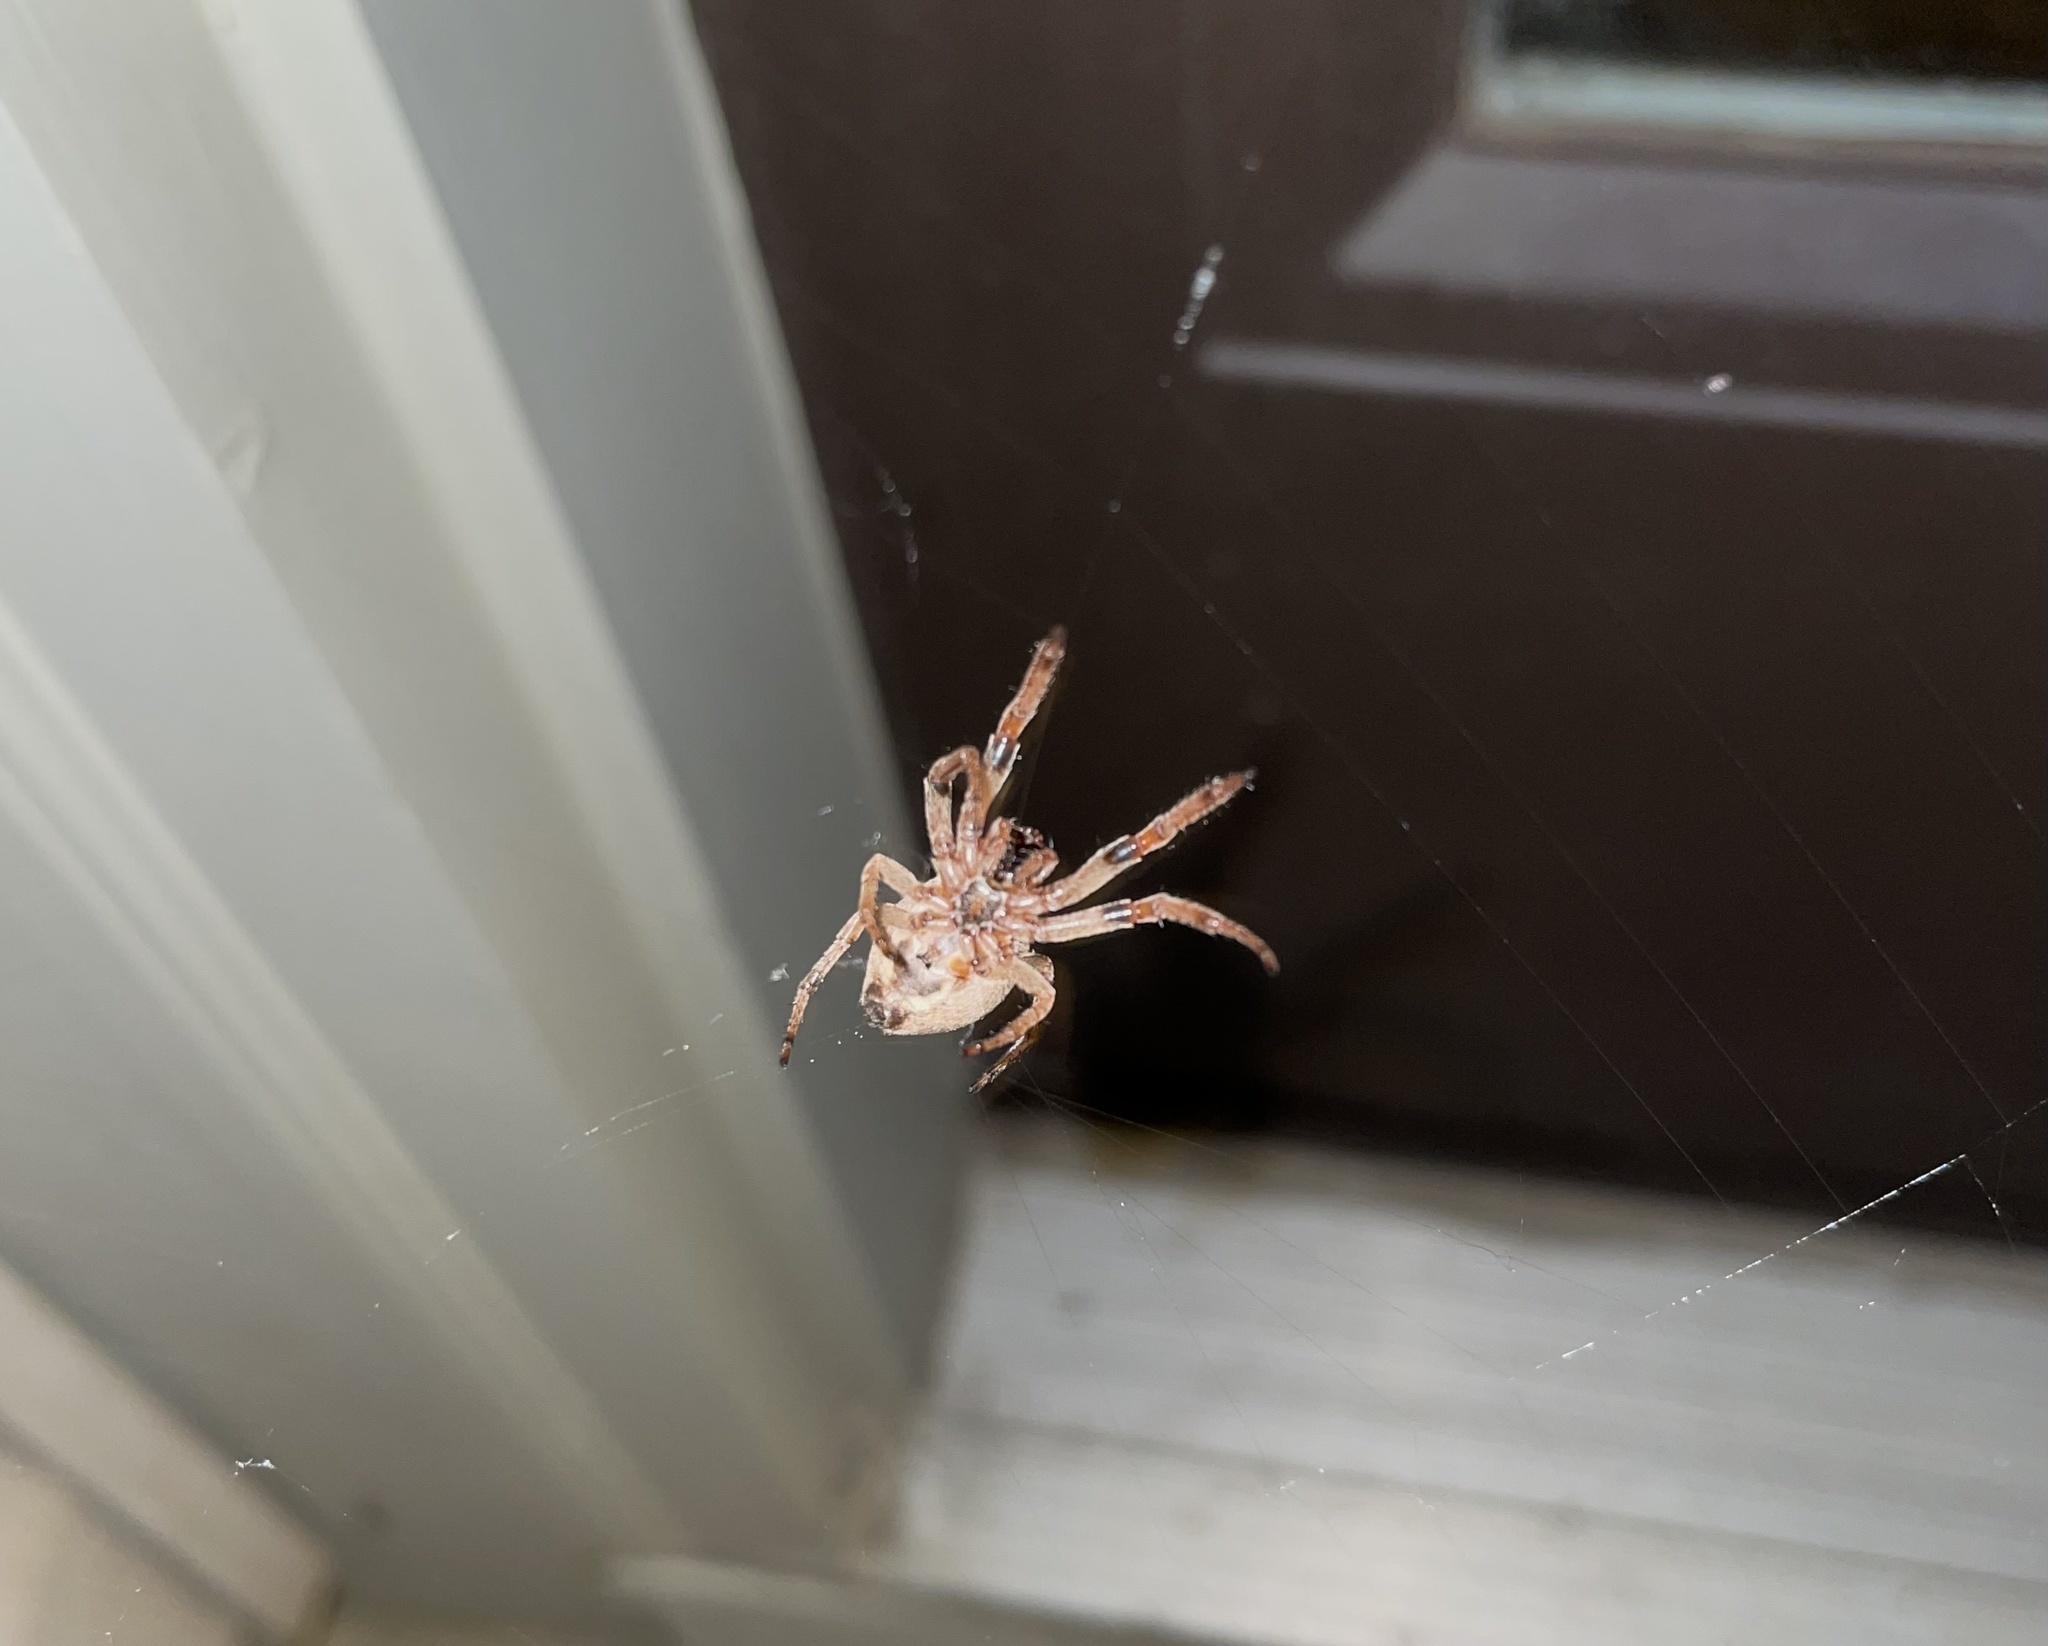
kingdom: Animalia
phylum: Arthropoda
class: Arachnida
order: Araneae
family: Araneidae
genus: Larinioides
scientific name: Larinioides cornutus
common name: Furrow orbweaver
